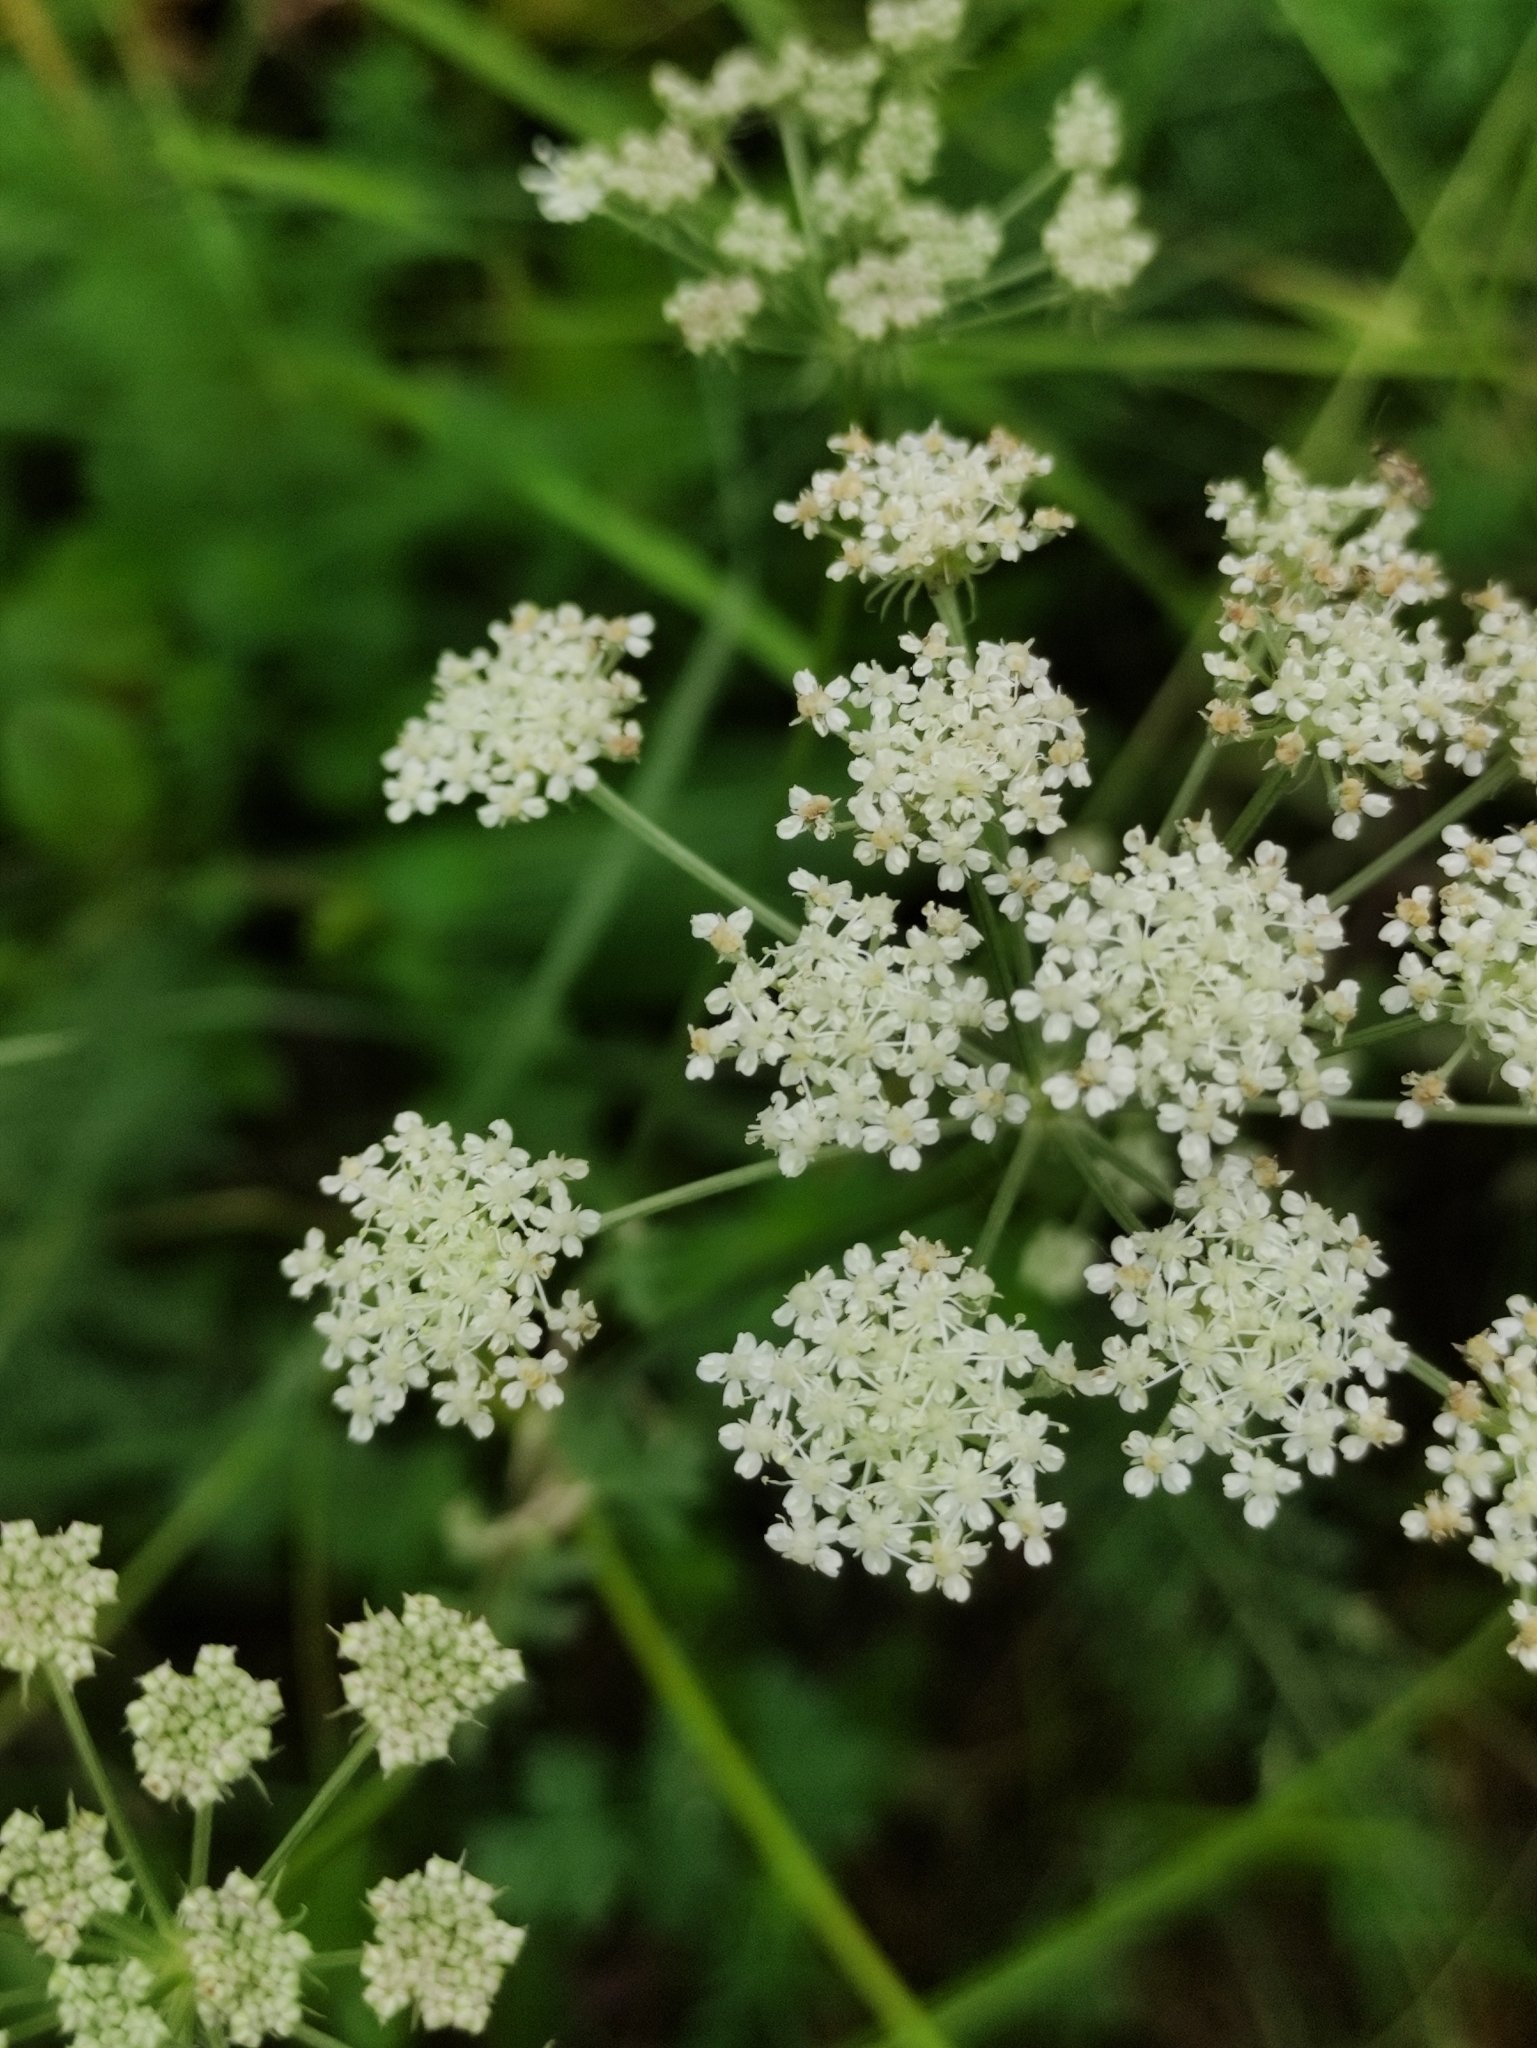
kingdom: Plantae
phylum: Tracheophyta
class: Magnoliopsida
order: Apiales
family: Apiaceae
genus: Pimpinella
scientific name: Pimpinella saxifraga
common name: Burnet-saxifrage
